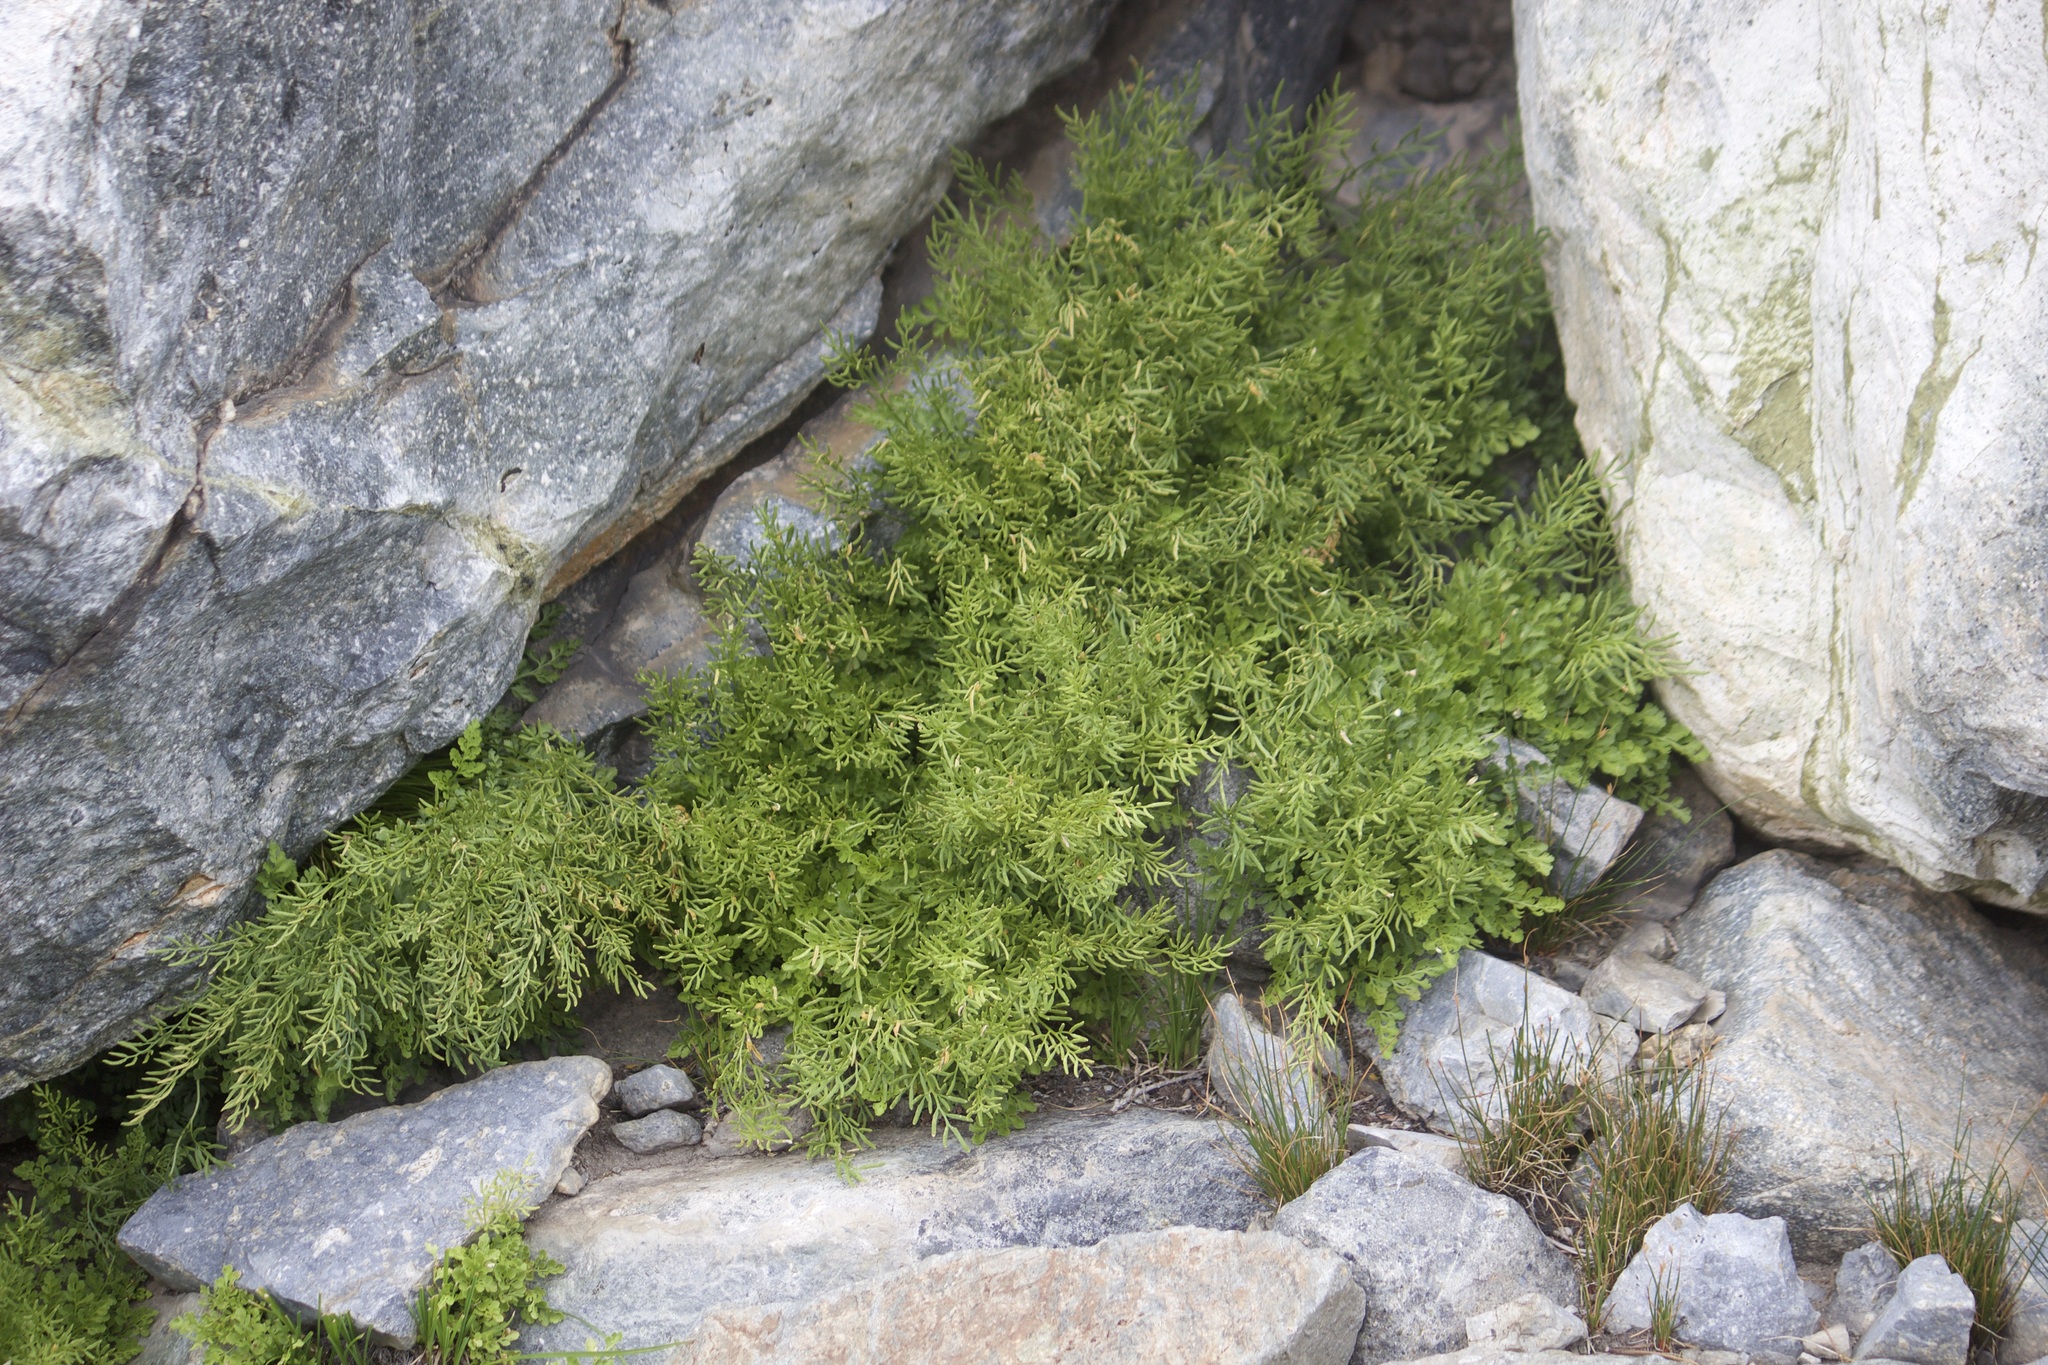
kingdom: Plantae
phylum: Tracheophyta
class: Polypodiopsida
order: Polypodiales
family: Pteridaceae
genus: Cryptogramma
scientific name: Cryptogramma acrostichoides
